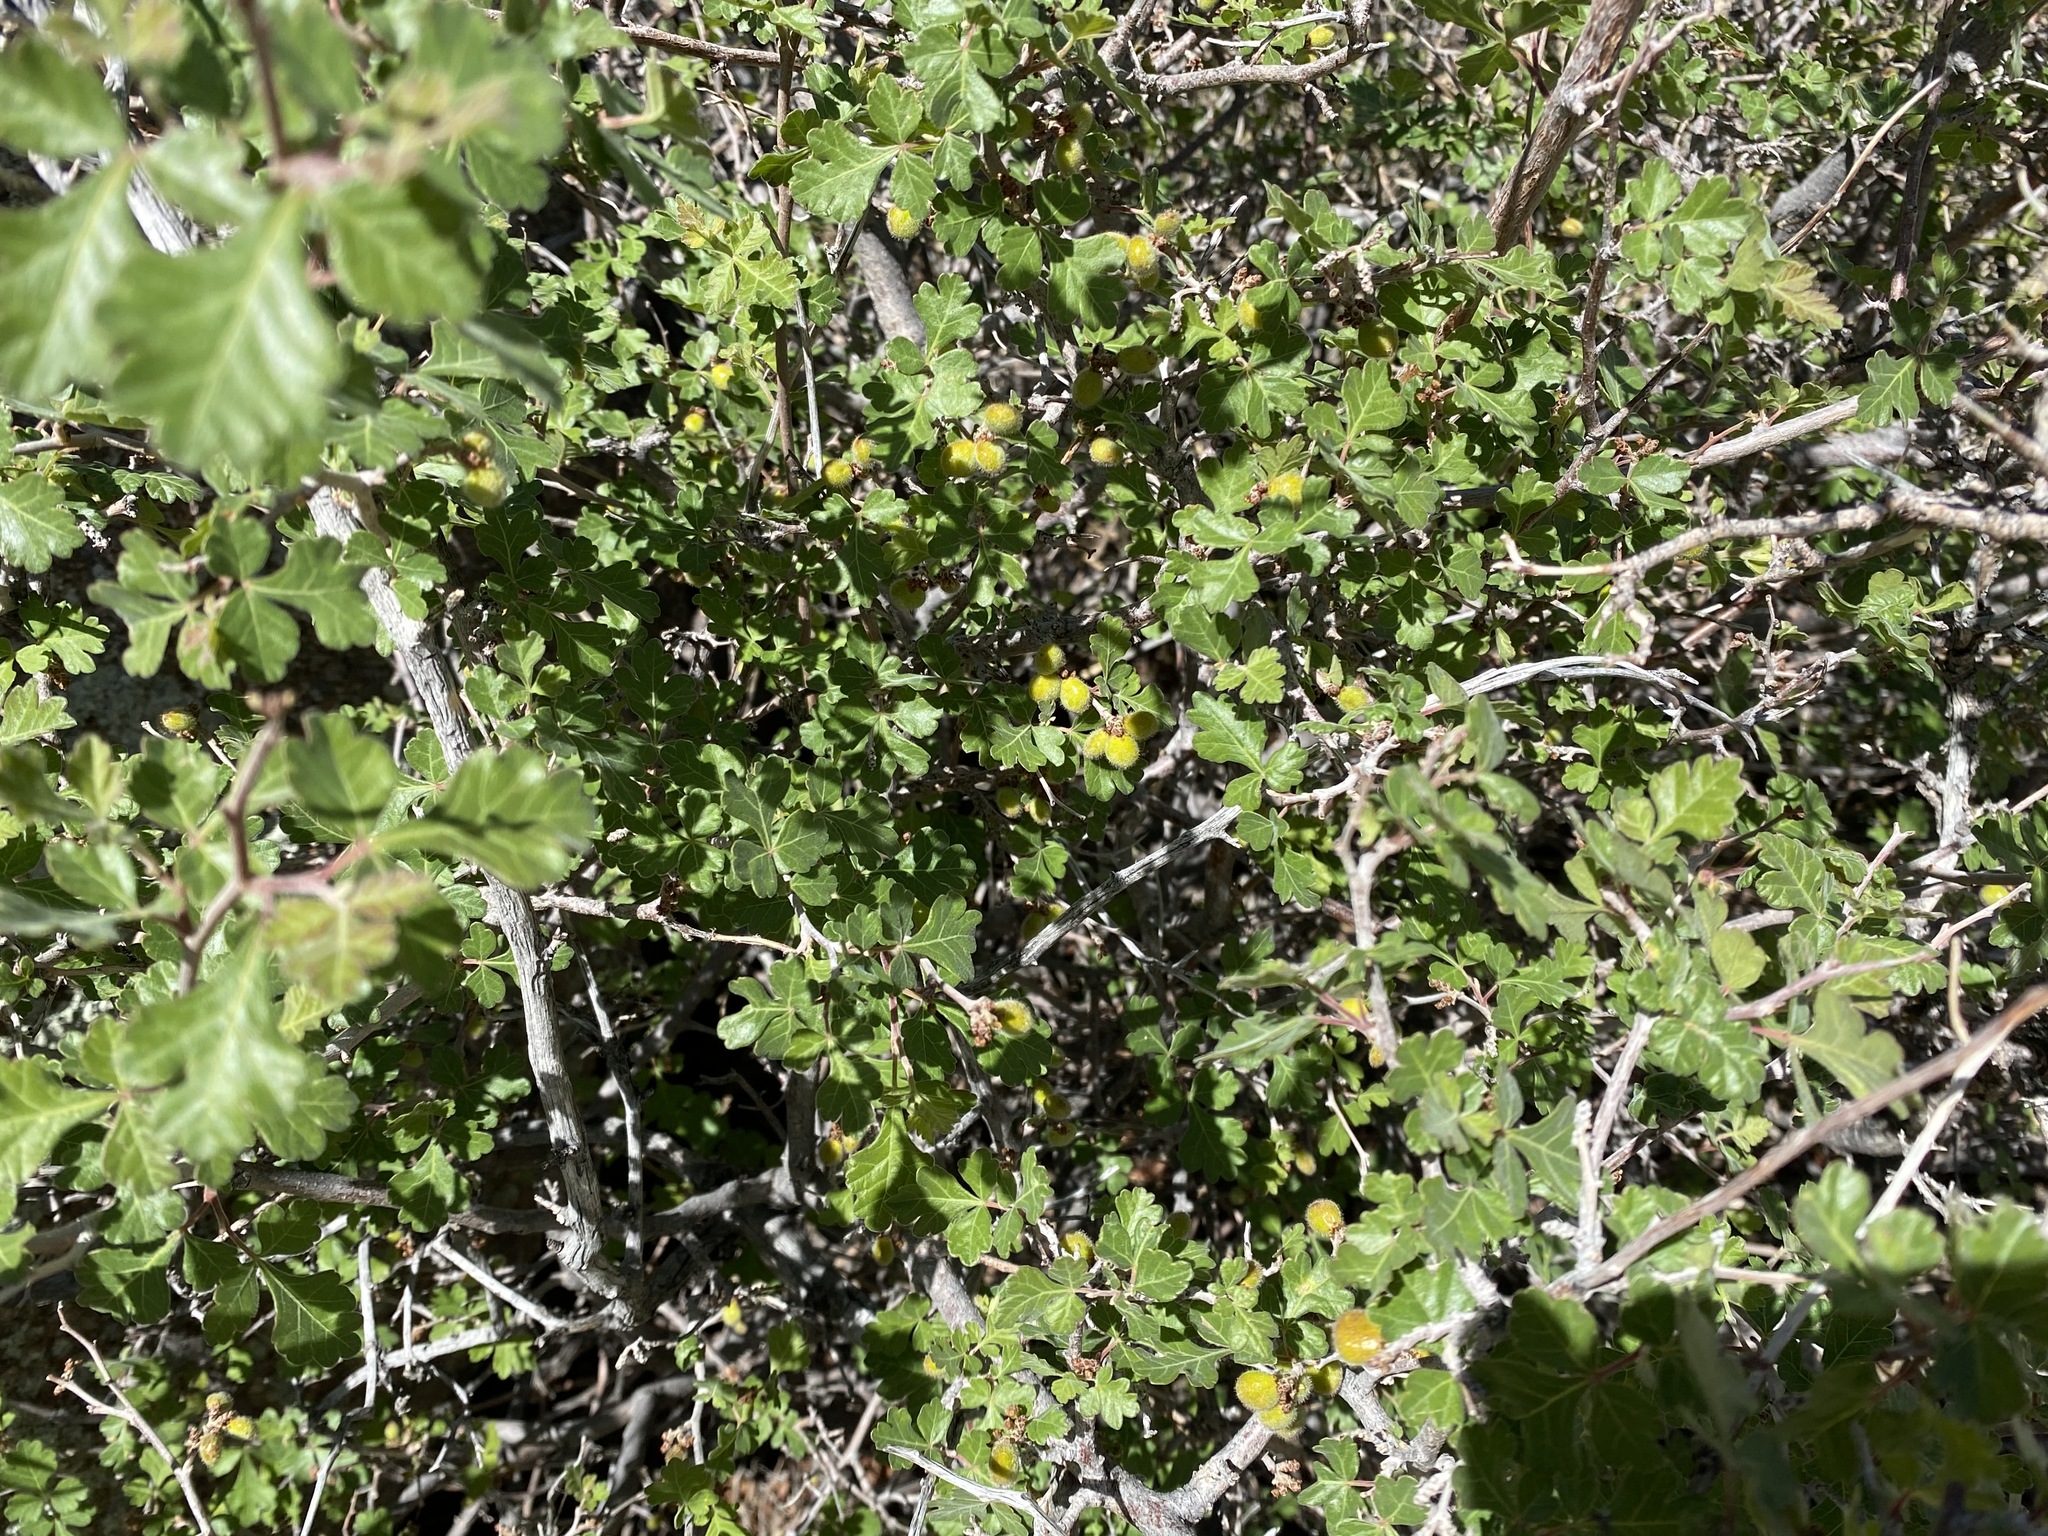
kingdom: Plantae
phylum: Tracheophyta
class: Magnoliopsida
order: Sapindales
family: Anacardiaceae
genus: Rhus
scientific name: Rhus aromatica
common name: Aromatic sumac
